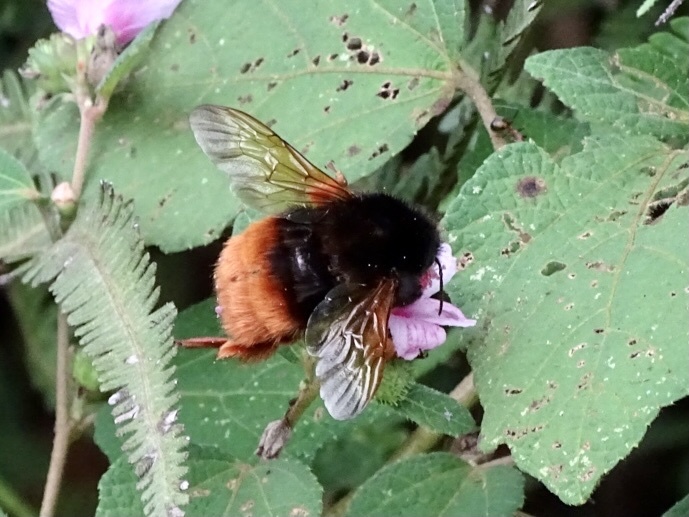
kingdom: Animalia
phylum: Arthropoda
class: Insecta
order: Hymenoptera
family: Apidae
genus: Bombus
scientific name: Bombus eximius
